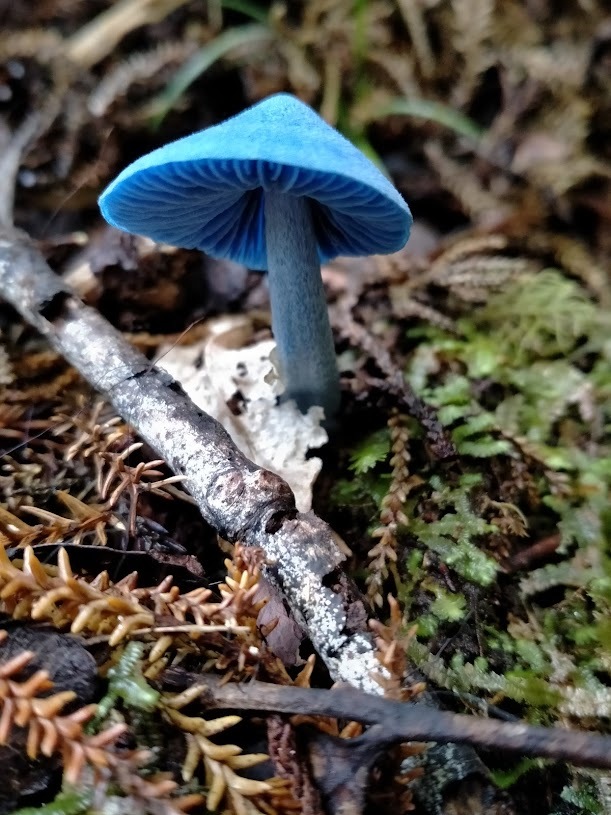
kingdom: Fungi
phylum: Basidiomycota
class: Agaricomycetes
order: Agaricales
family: Entolomataceae
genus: Entoloma
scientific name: Entoloma hochstetteri
